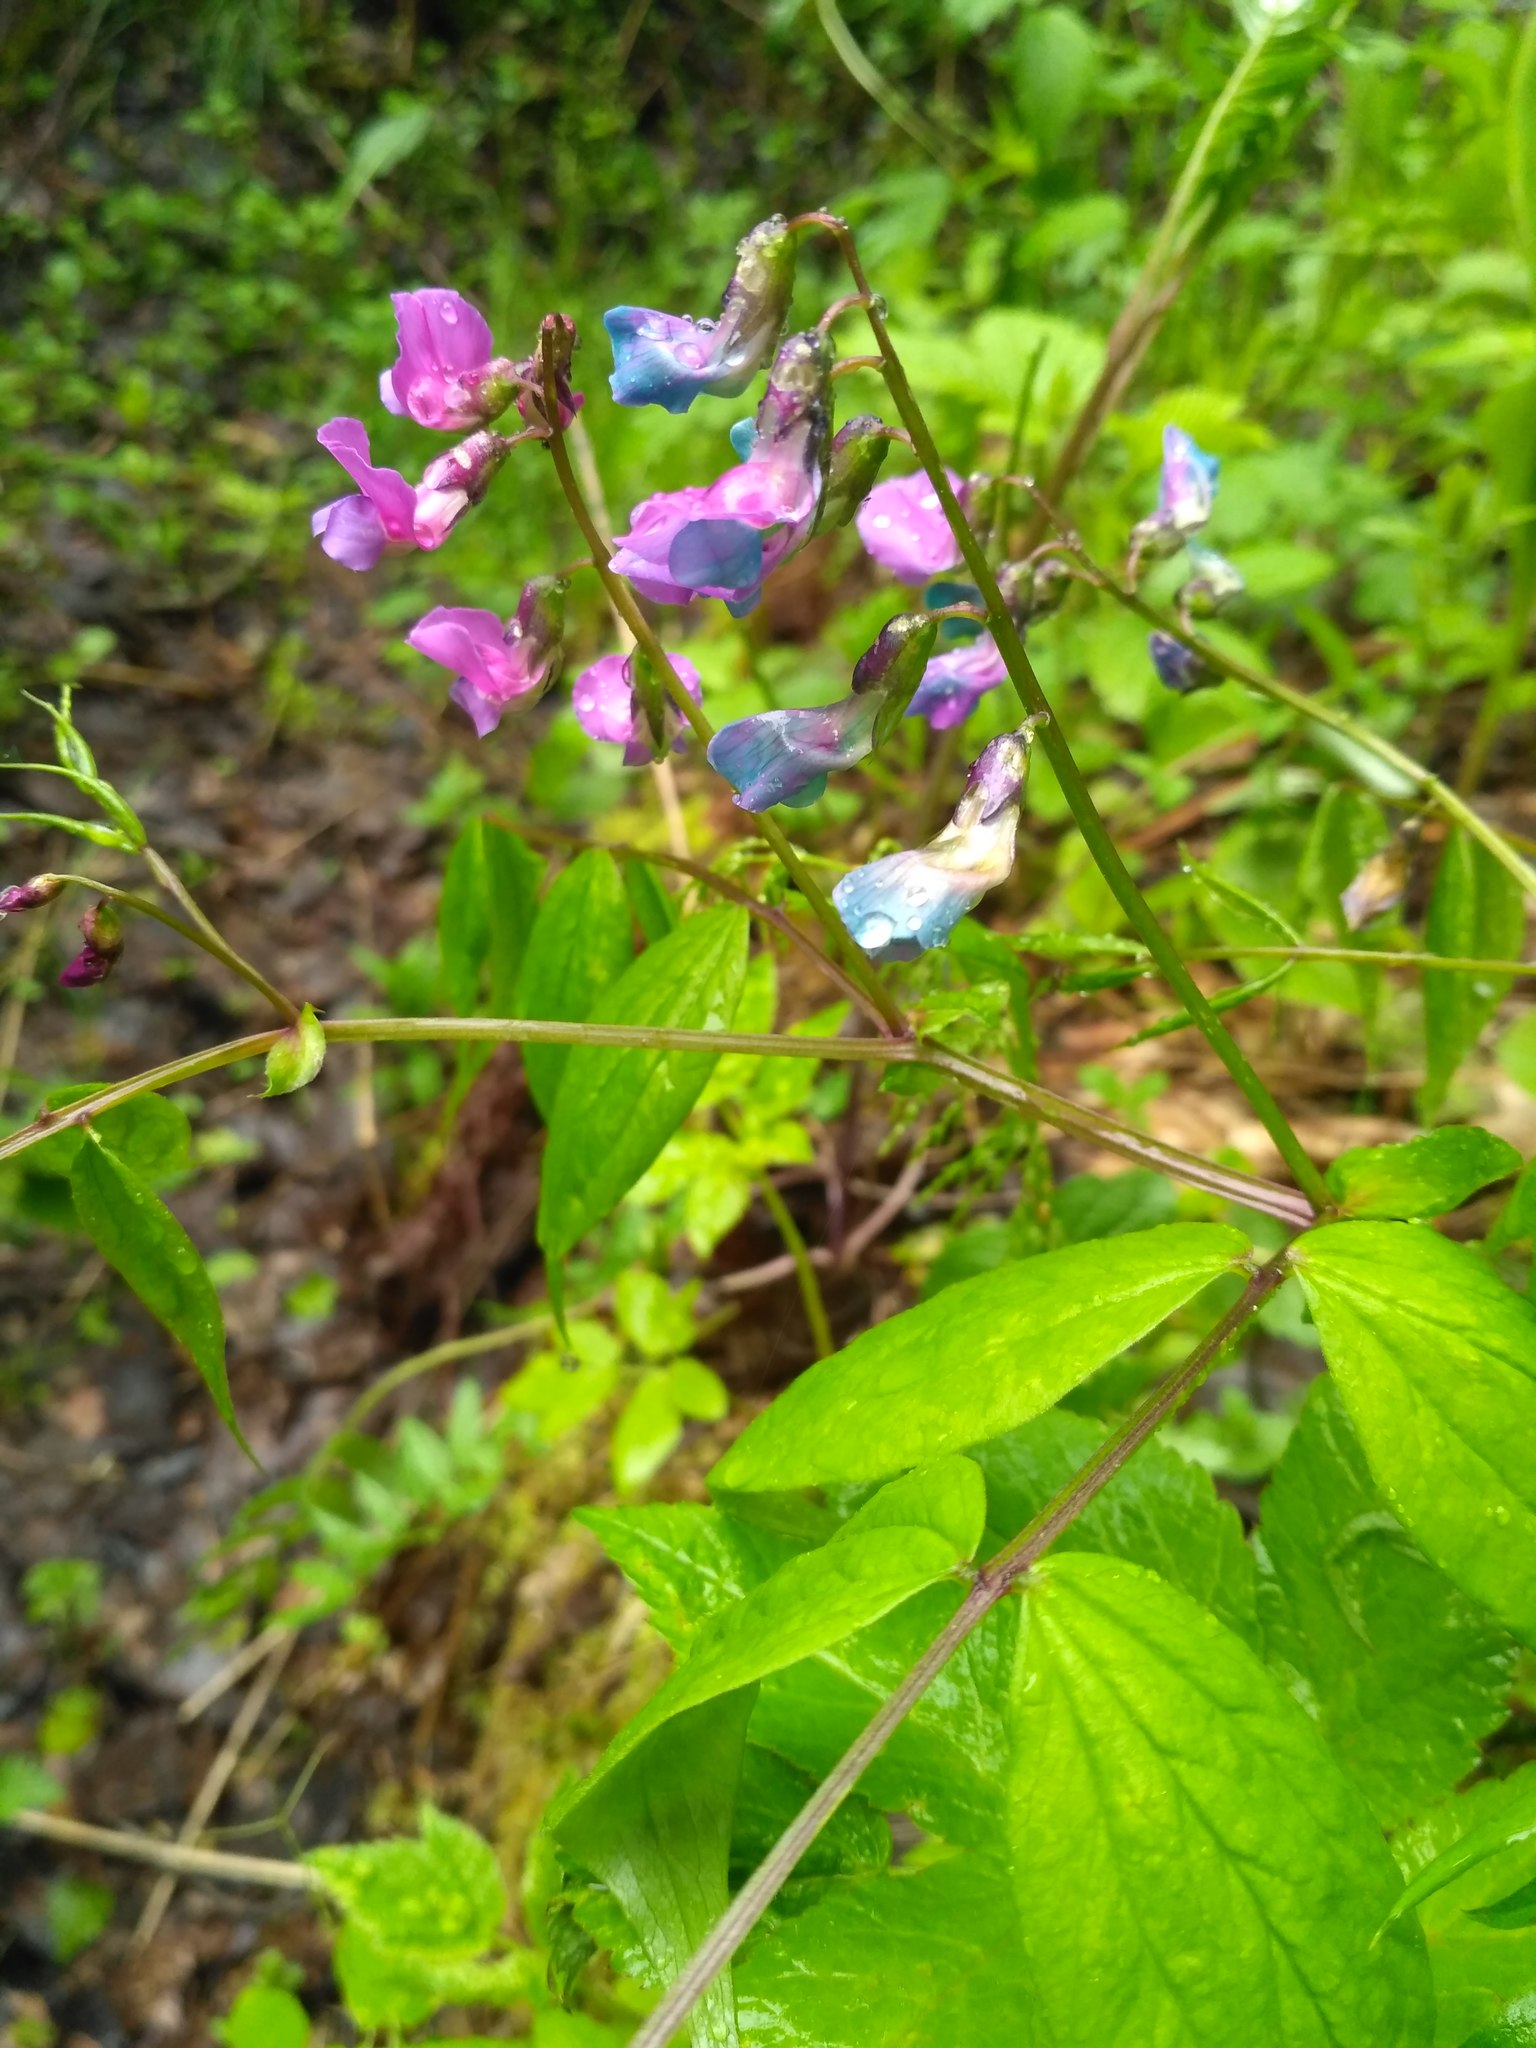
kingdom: Plantae
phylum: Tracheophyta
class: Magnoliopsida
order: Fabales
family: Fabaceae
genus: Lathyrus
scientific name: Lathyrus vernus
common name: Spring pea
